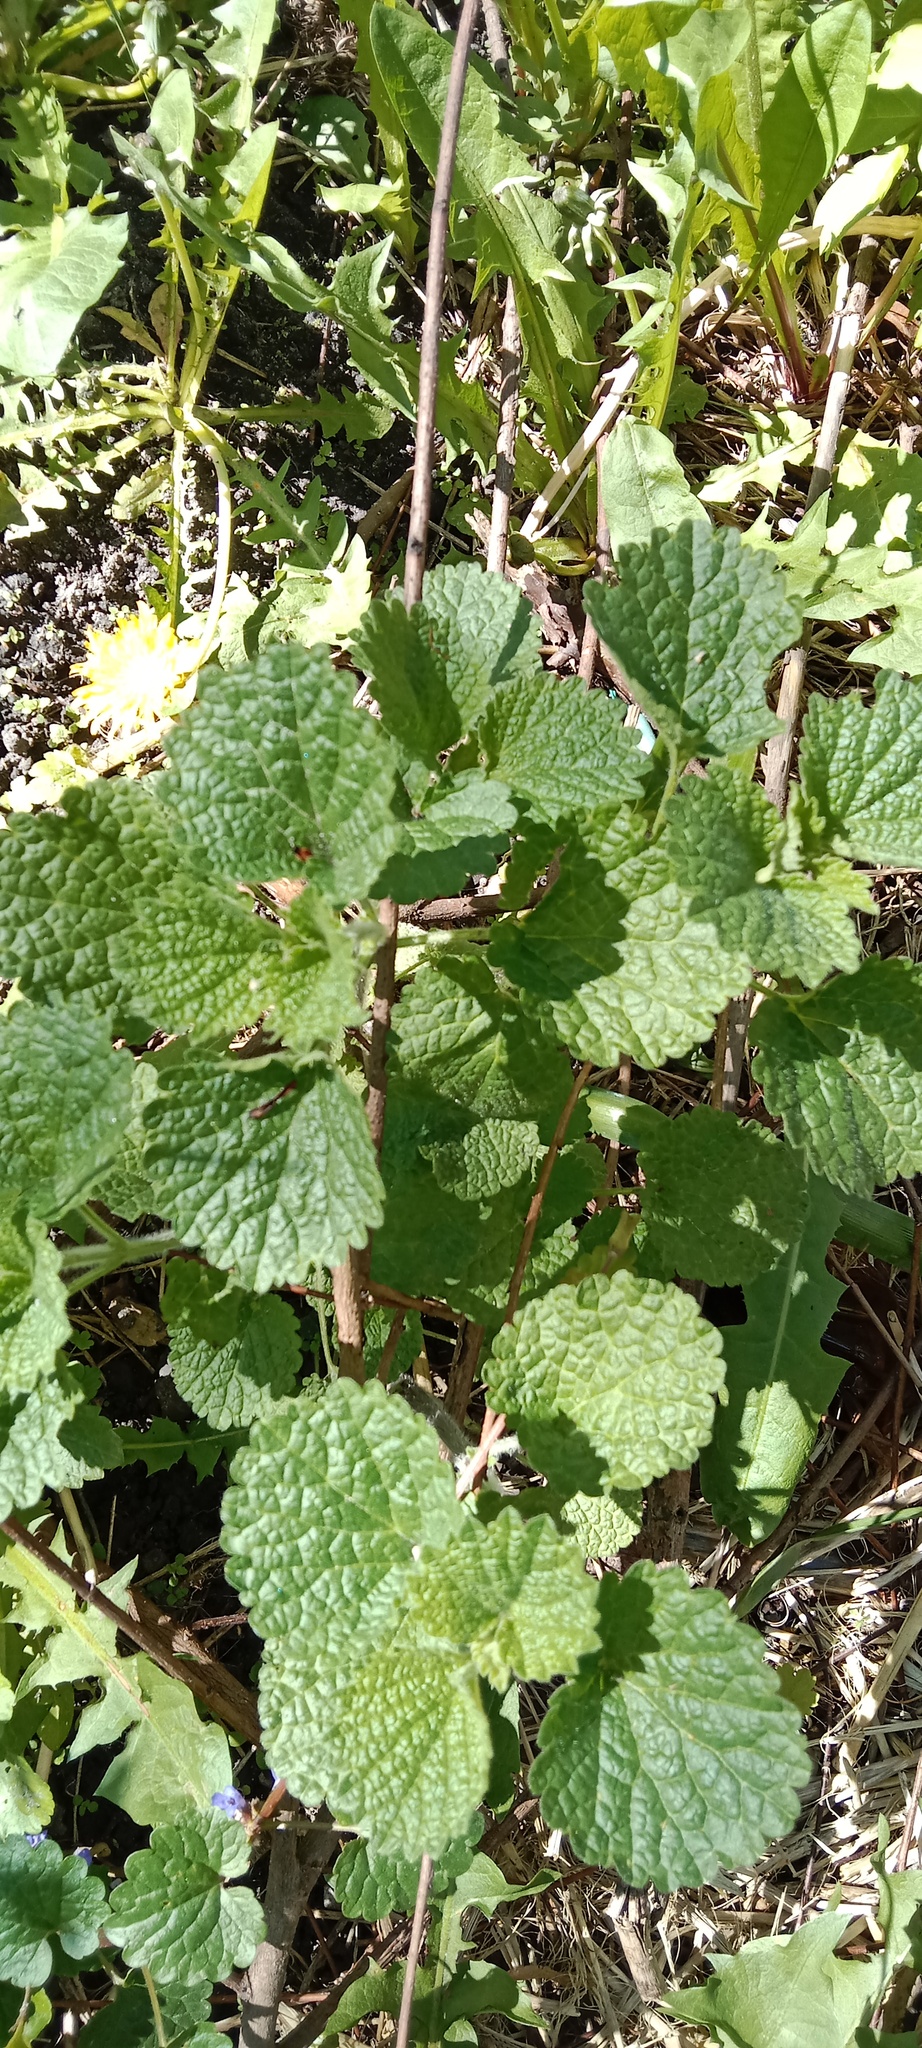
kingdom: Plantae
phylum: Tracheophyta
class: Magnoliopsida
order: Lamiales
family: Lamiaceae
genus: Ballota
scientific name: Ballota nigra
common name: Black horehound
